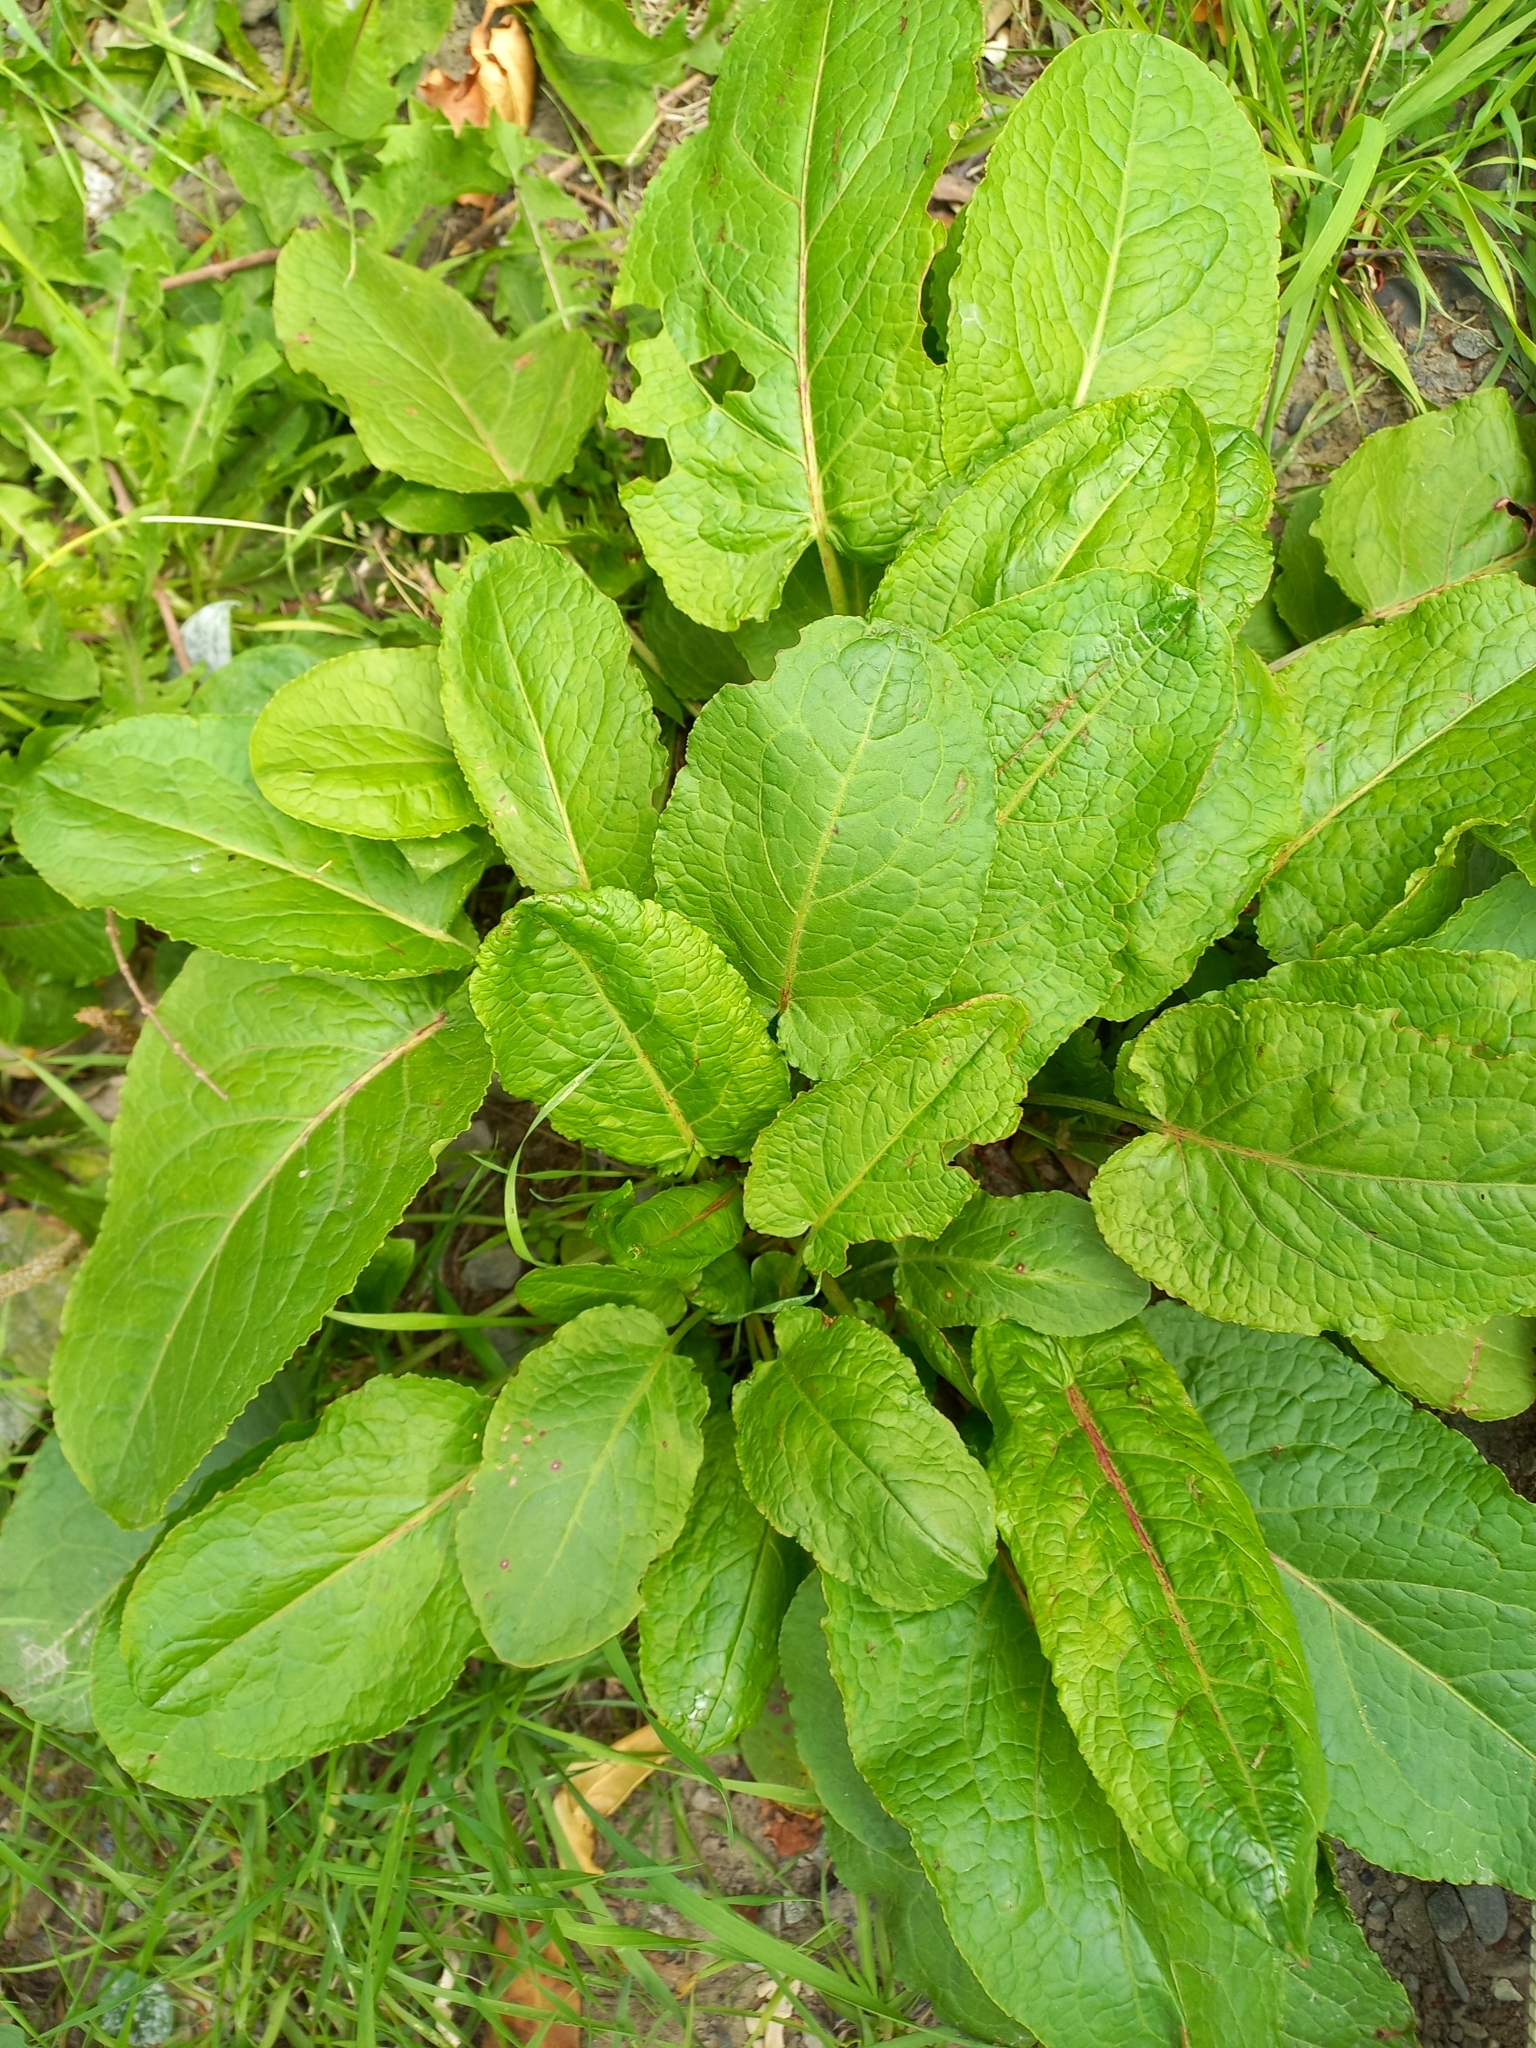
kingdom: Plantae
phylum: Tracheophyta
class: Magnoliopsida
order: Caryophyllales
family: Polygonaceae
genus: Rumex
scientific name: Rumex obtusifolius
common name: Bitter dock
